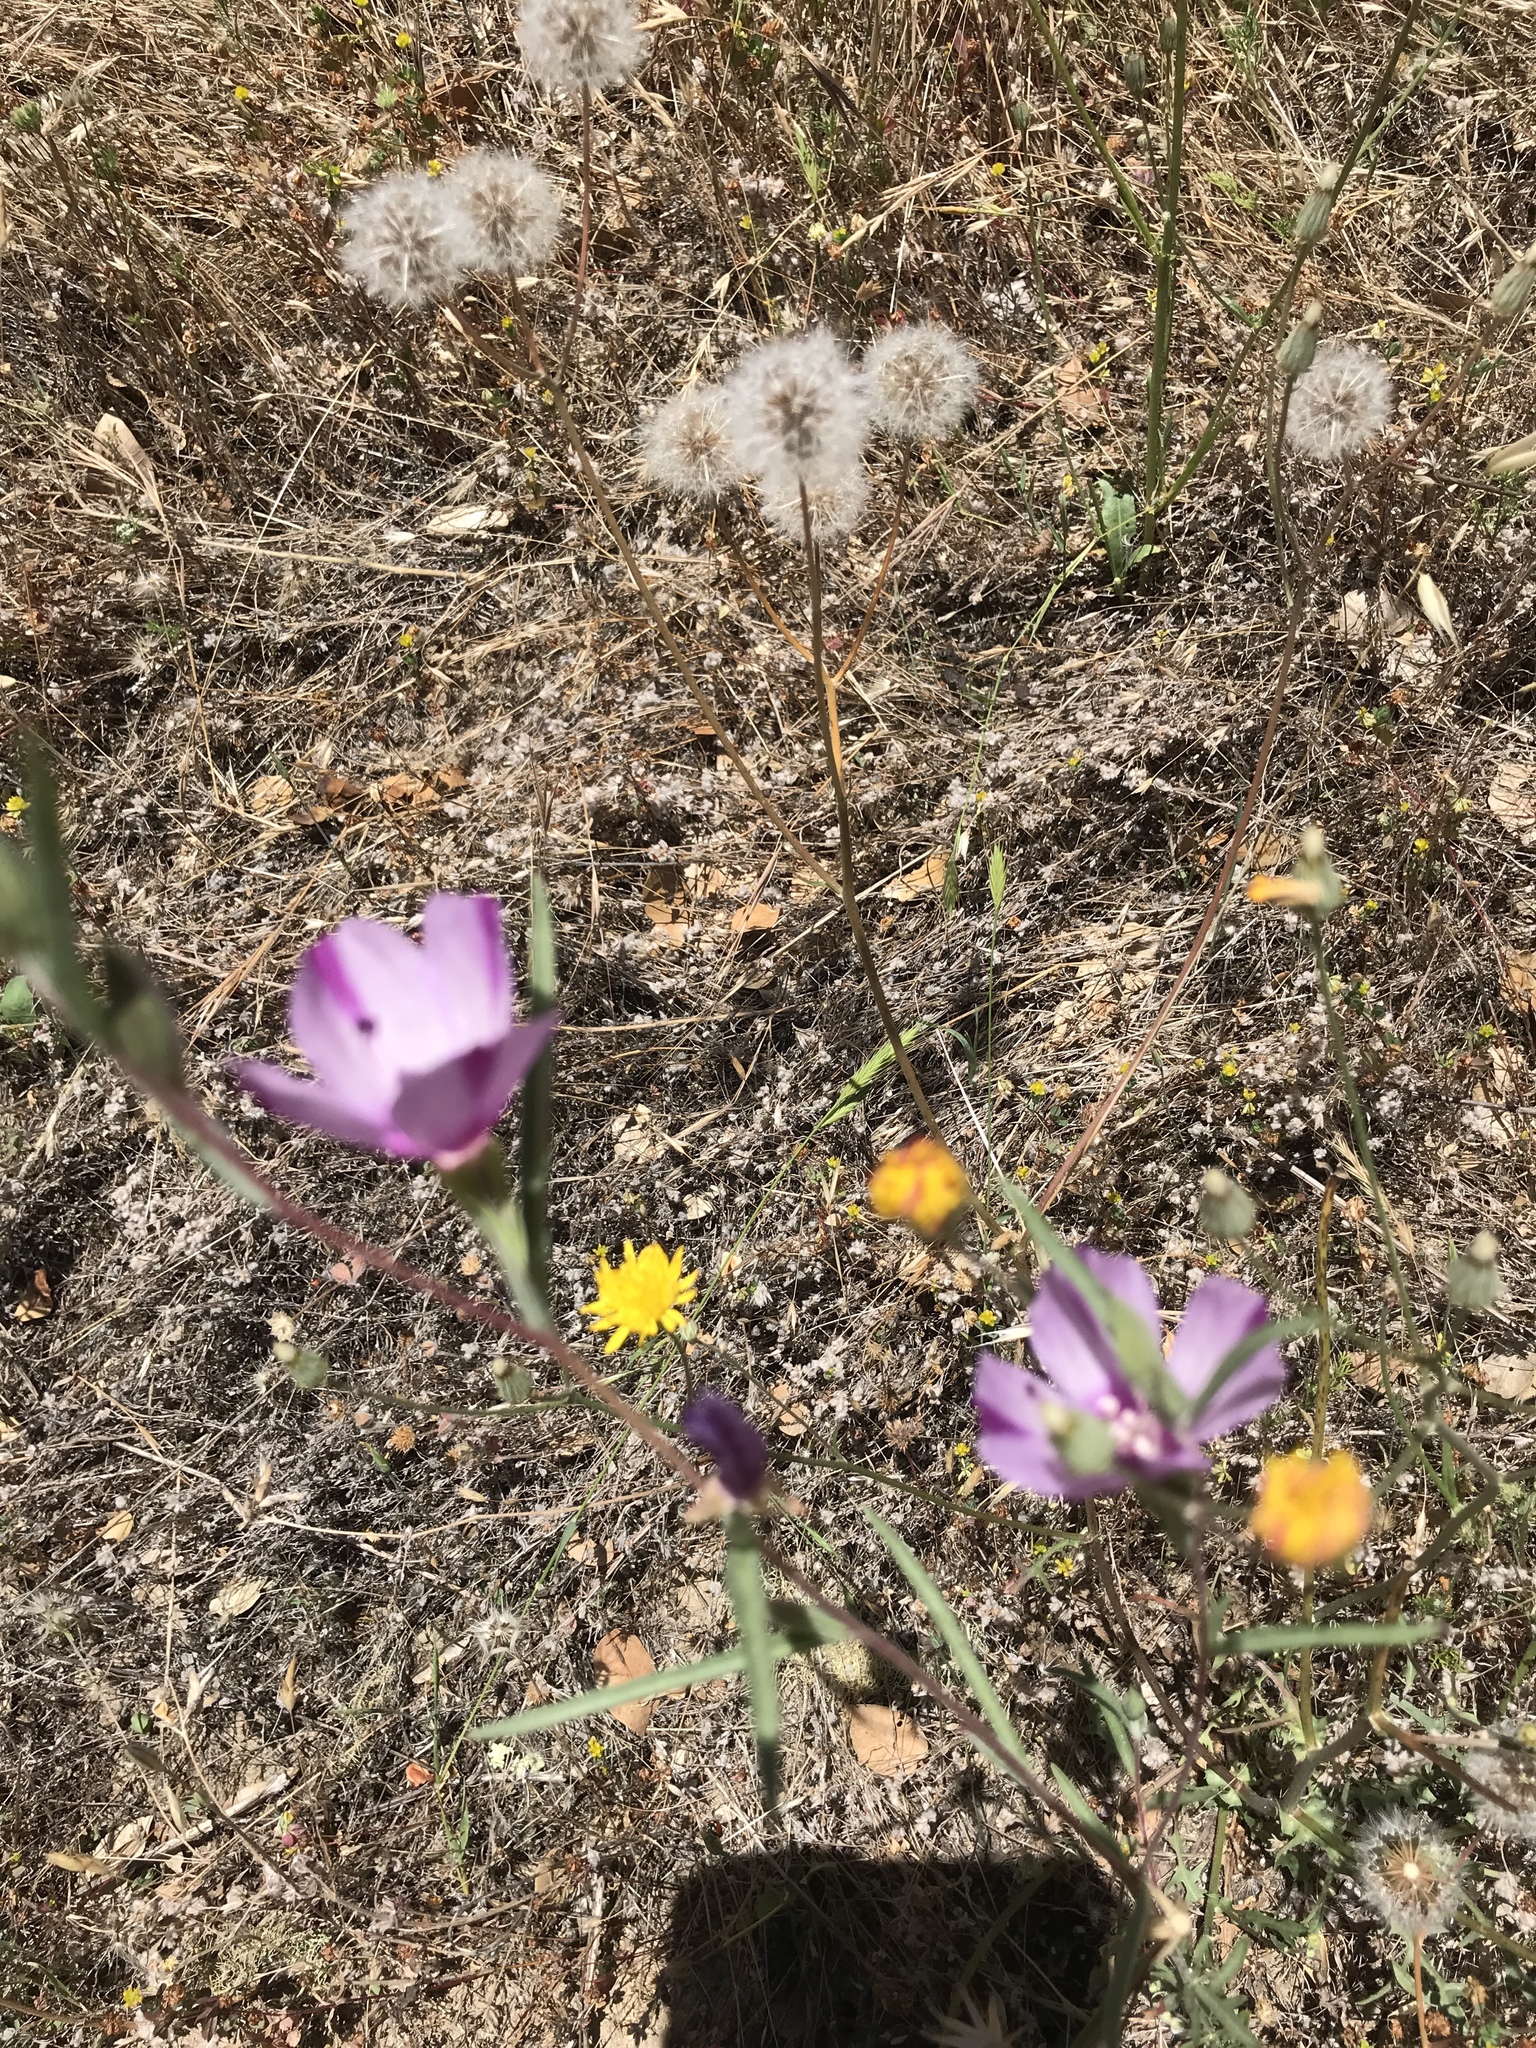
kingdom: Plantae
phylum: Tracheophyta
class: Magnoliopsida
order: Myrtales
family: Onagraceae
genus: Clarkia
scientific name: Clarkia purpurea
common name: Purple clarkia
